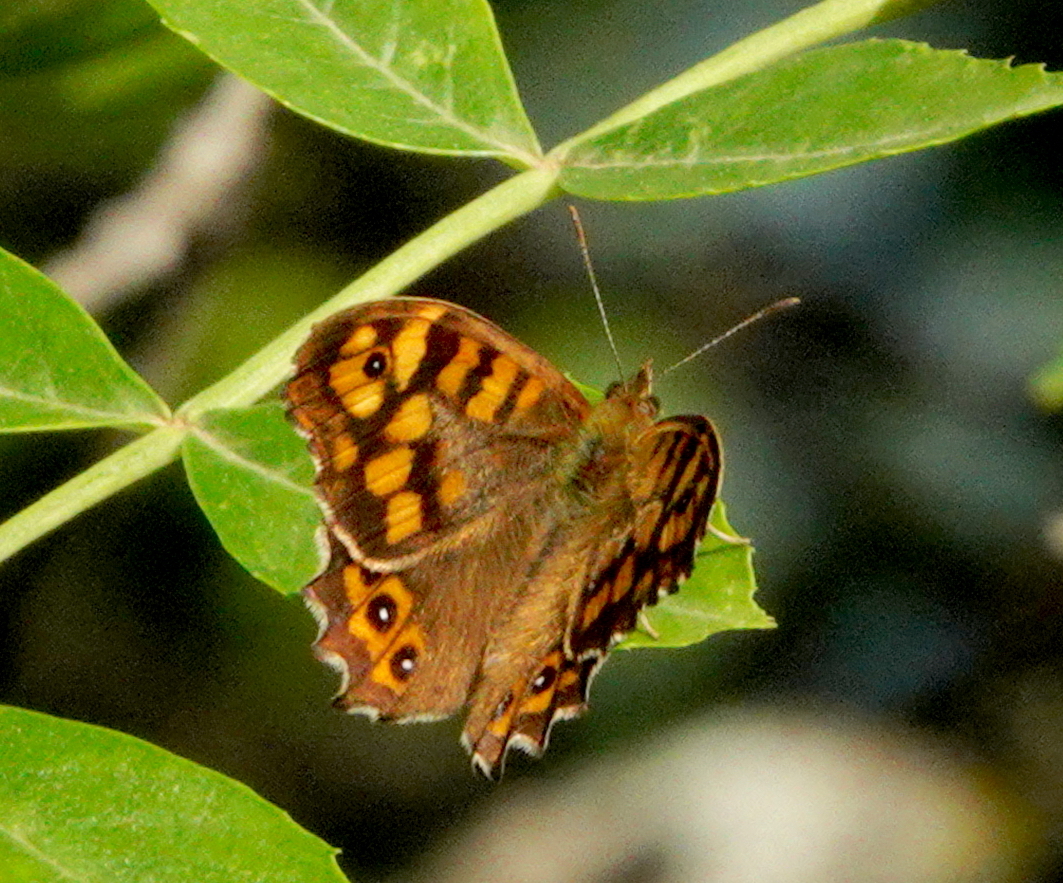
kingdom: Animalia
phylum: Arthropoda
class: Insecta
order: Lepidoptera
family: Nymphalidae
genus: Pararge
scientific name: Pararge aegeria
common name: Speckled wood
